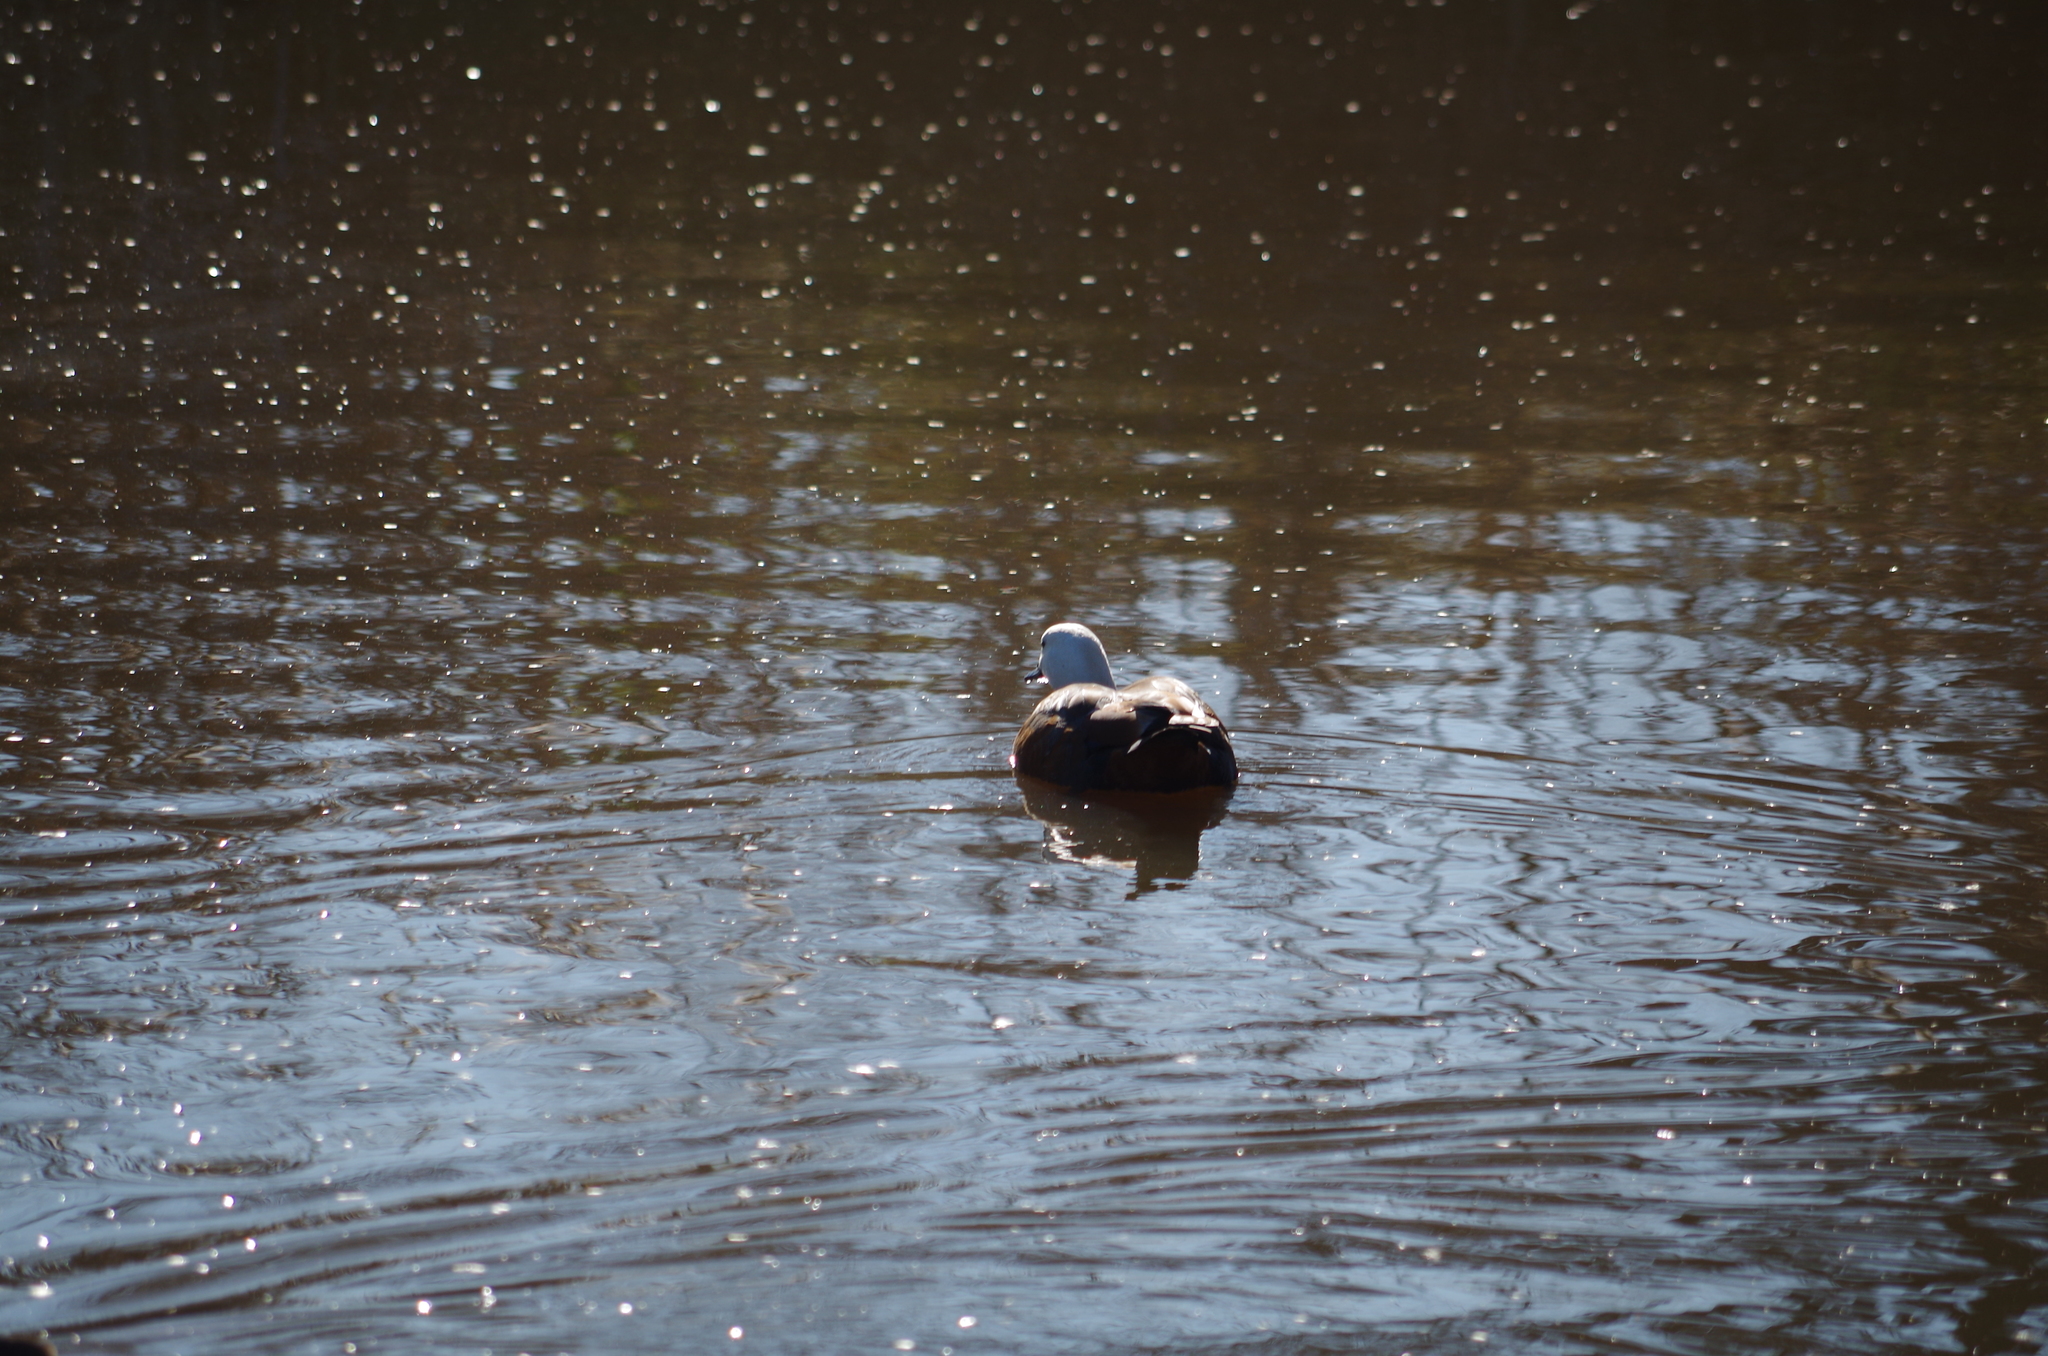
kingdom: Animalia
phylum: Chordata
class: Aves
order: Anseriformes
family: Anatidae
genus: Tadorna
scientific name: Tadorna variegata
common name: Paradise shelduck
